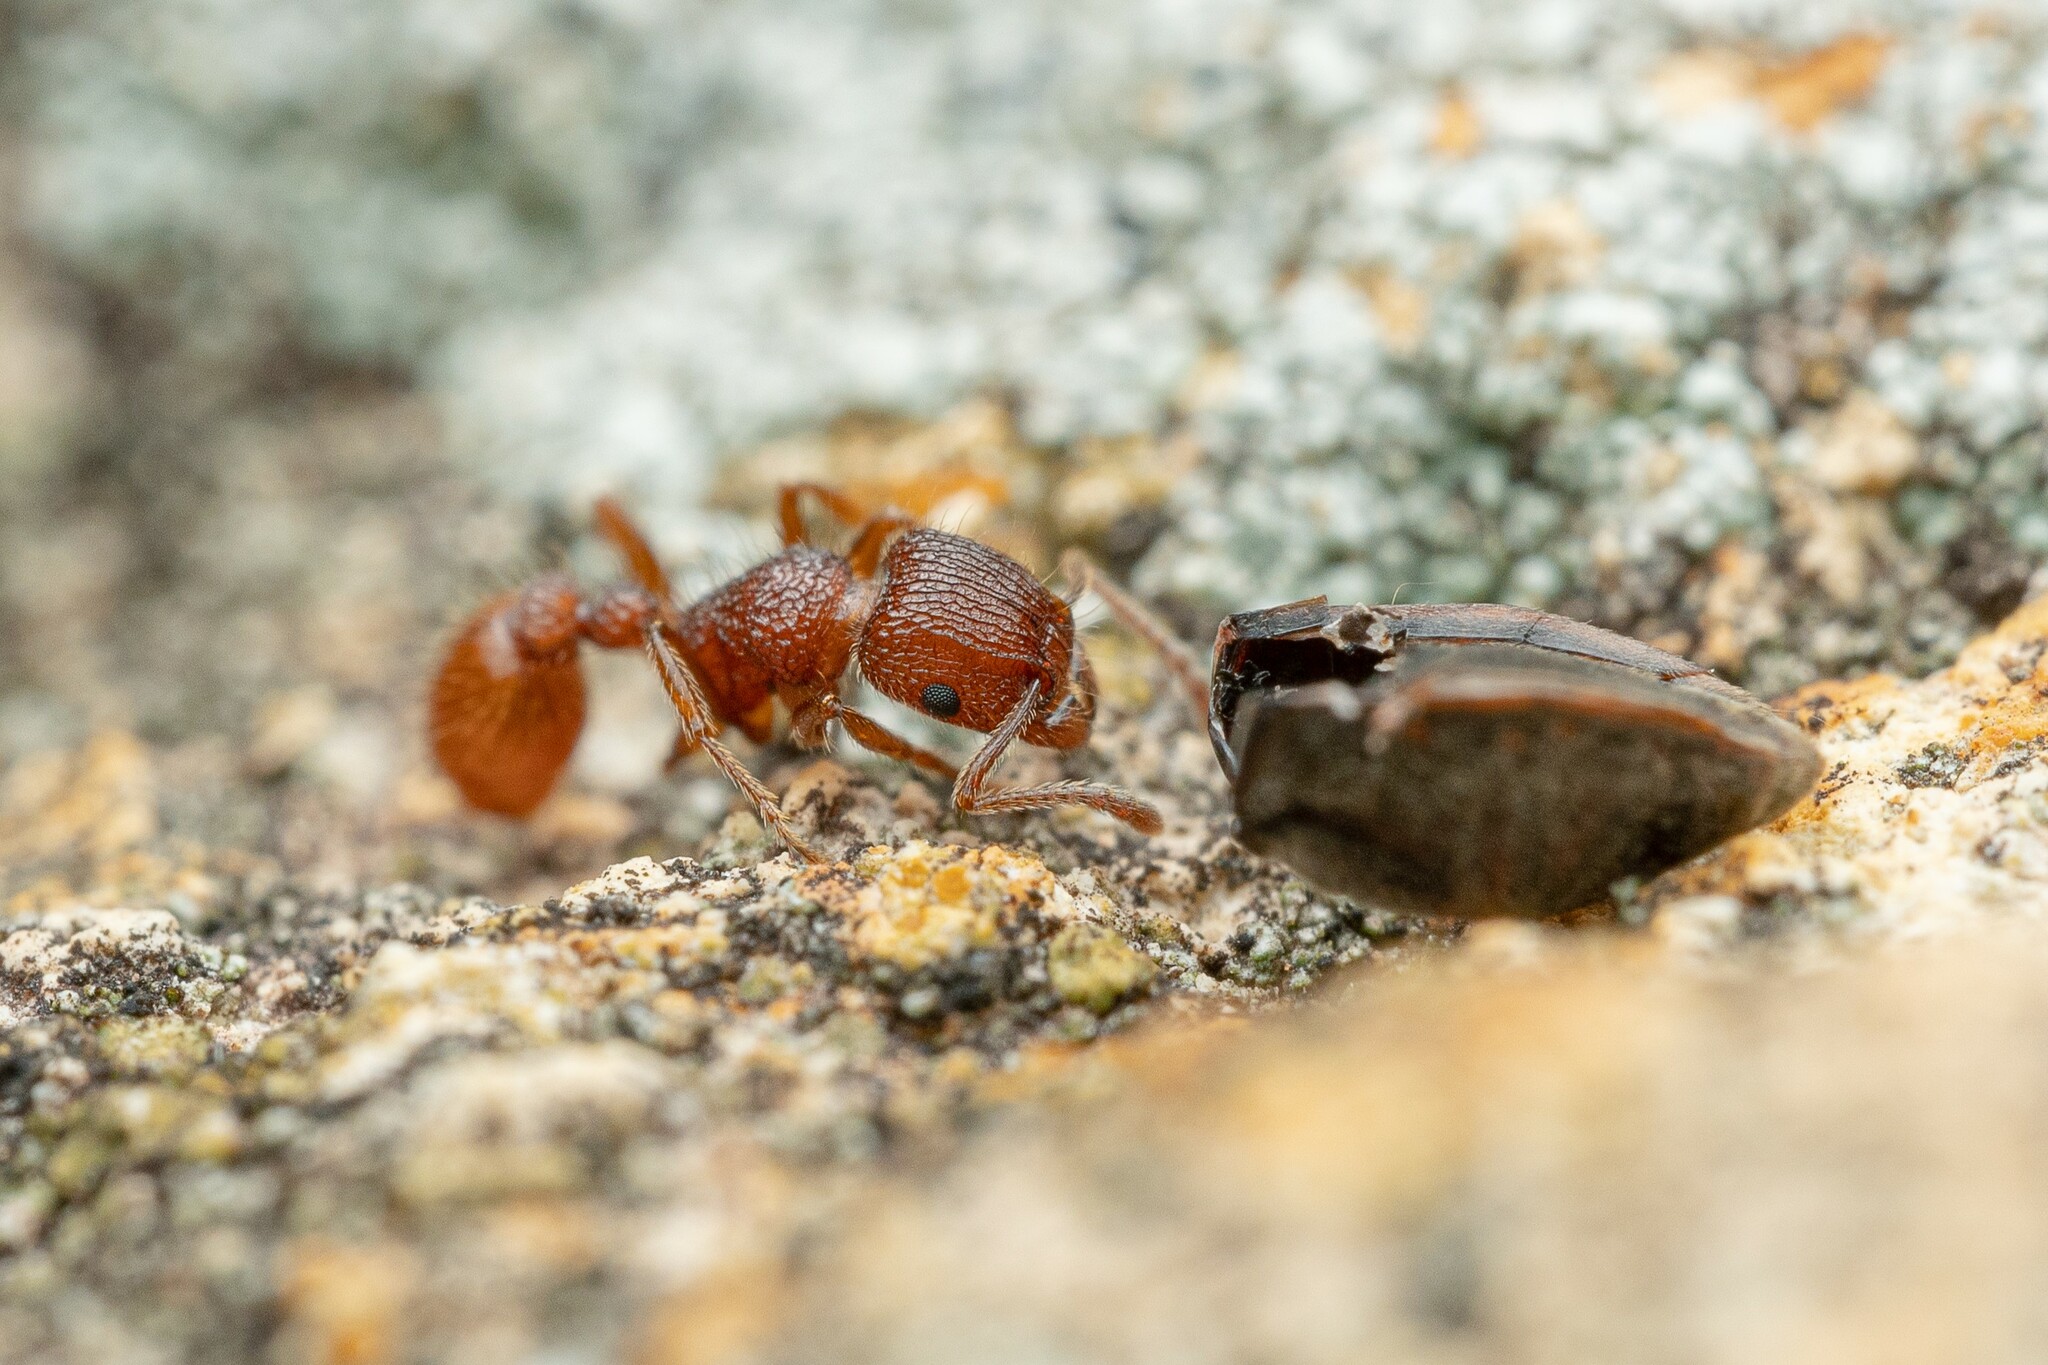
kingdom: Animalia
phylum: Arthropoda
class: Insecta
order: Hymenoptera
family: Formicidae
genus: Tetramorium
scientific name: Tetramorium spinosum
